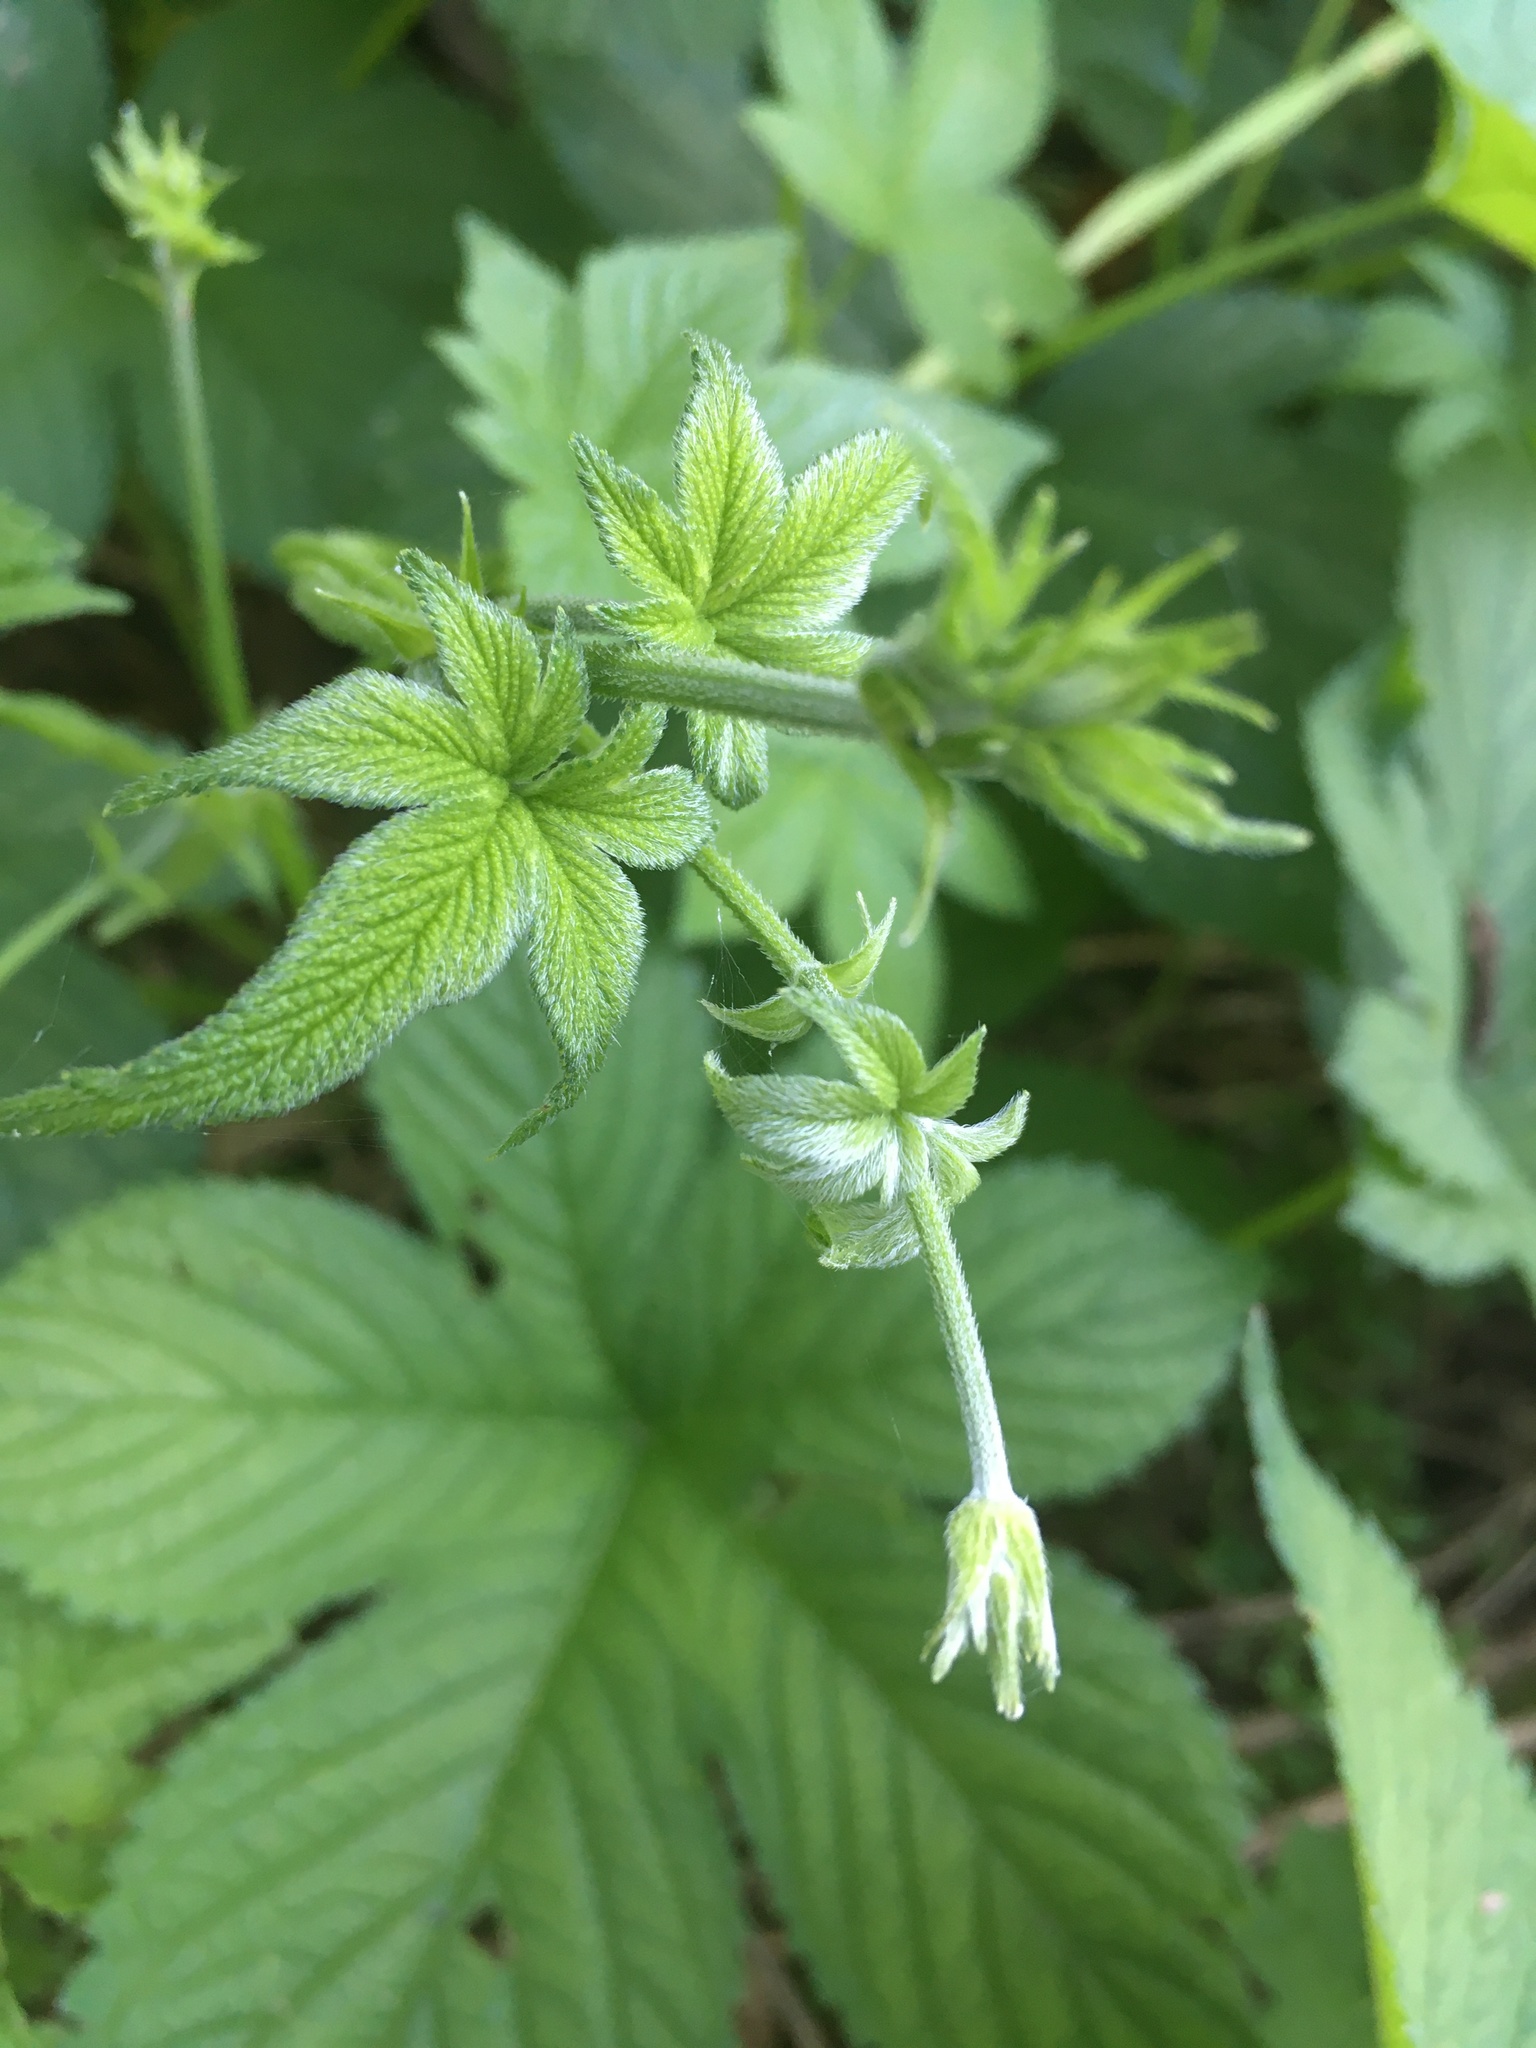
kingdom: Plantae
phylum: Tracheophyta
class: Magnoliopsida
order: Rosales
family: Cannabaceae
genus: Humulus
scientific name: Humulus scandens
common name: Japanese hop
